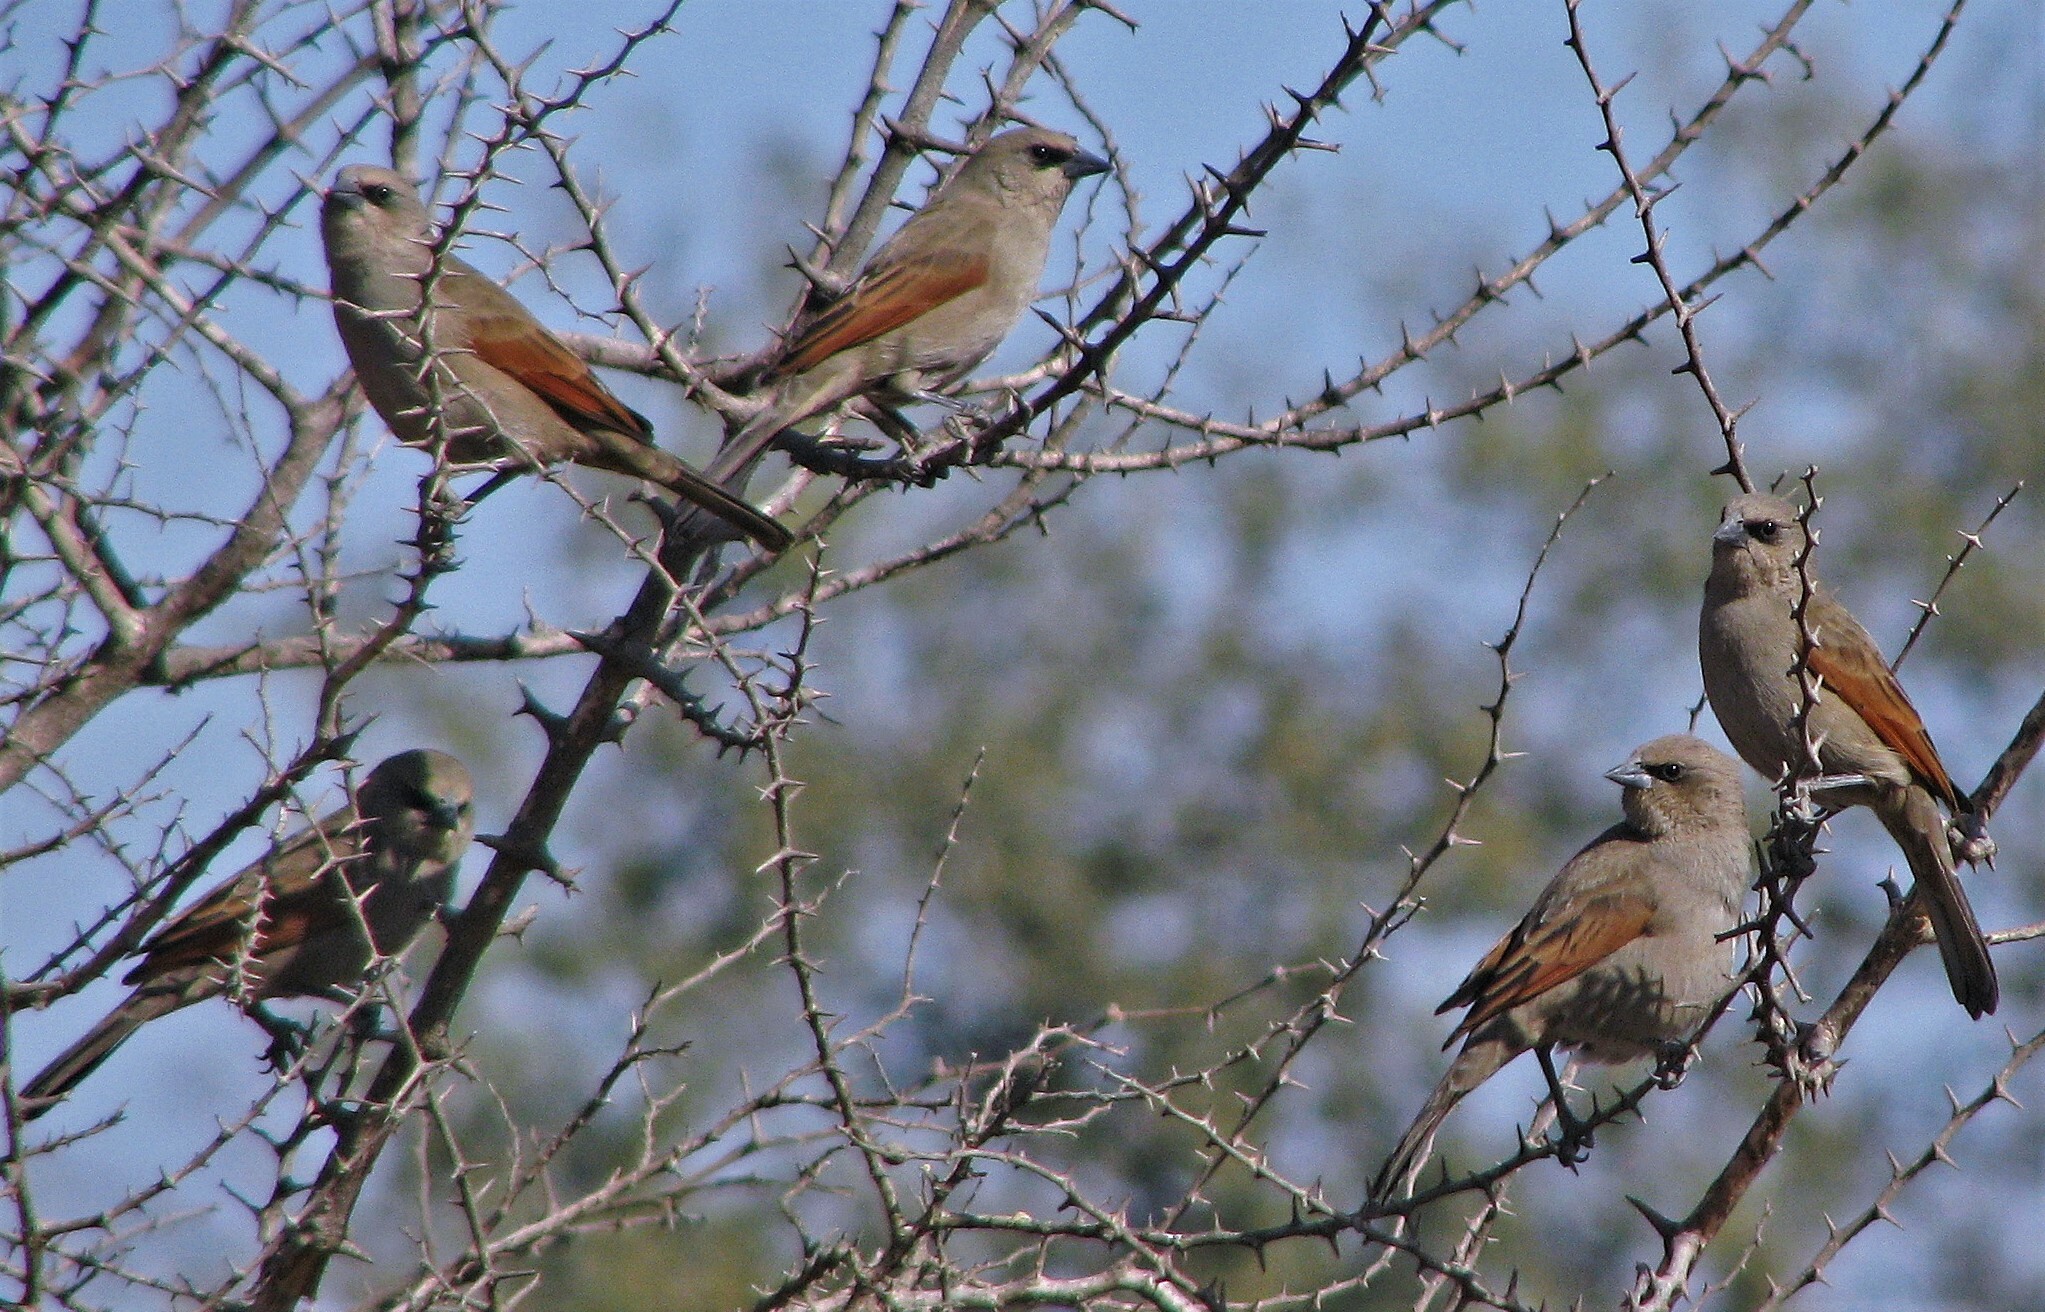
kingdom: Animalia
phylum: Chordata
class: Aves
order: Passeriformes
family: Icteridae
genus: Agelaioides
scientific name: Agelaioides badius
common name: Baywing
